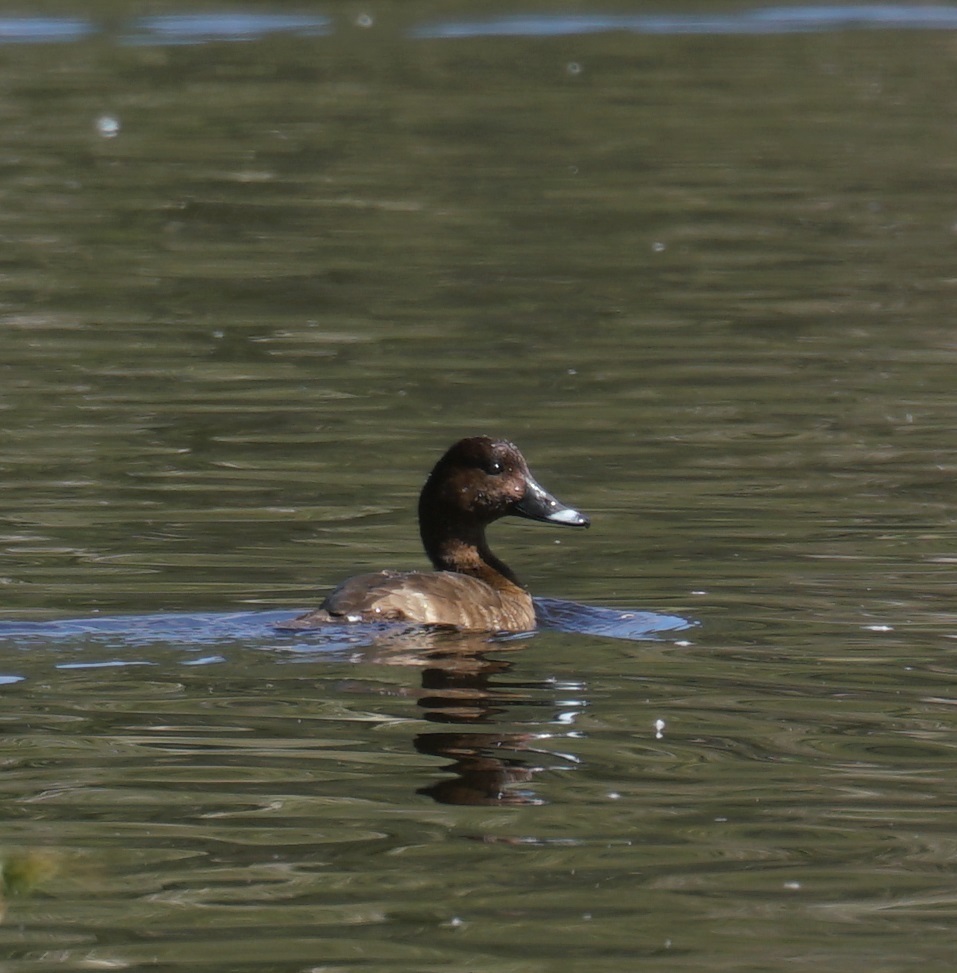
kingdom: Animalia
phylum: Chordata
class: Aves
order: Anseriformes
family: Anatidae
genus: Aythya
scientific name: Aythya australis
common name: Hardhead
